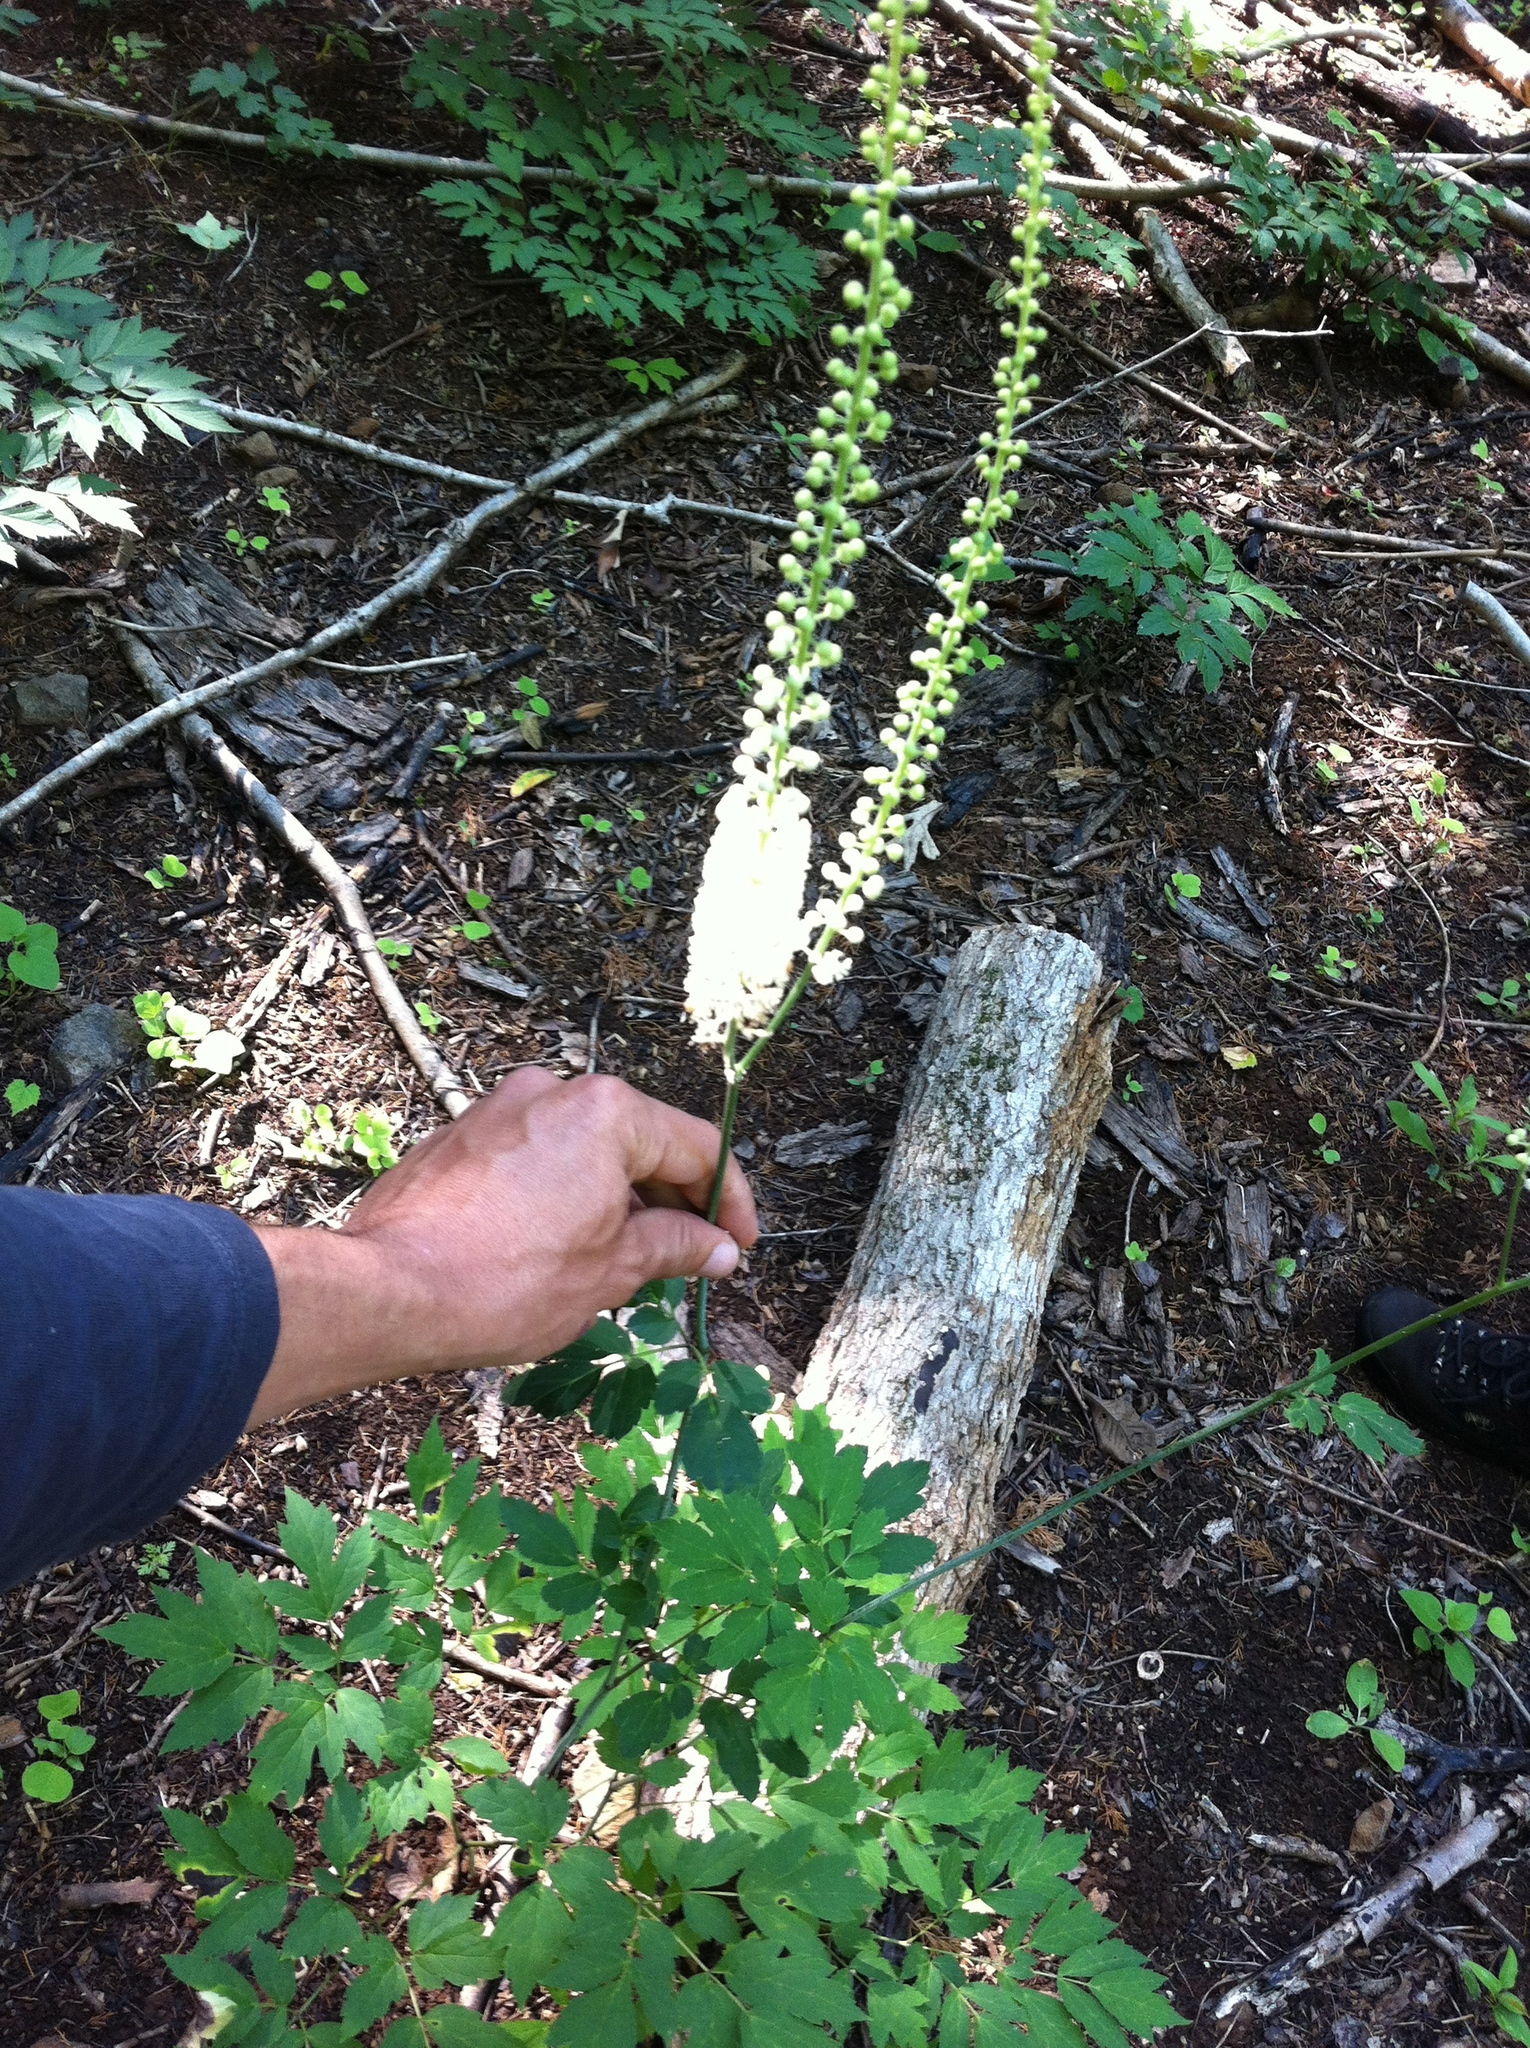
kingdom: Plantae
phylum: Tracheophyta
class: Magnoliopsida
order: Ranunculales
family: Ranunculaceae
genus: Actaea
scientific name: Actaea racemosa
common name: Black cohosh
